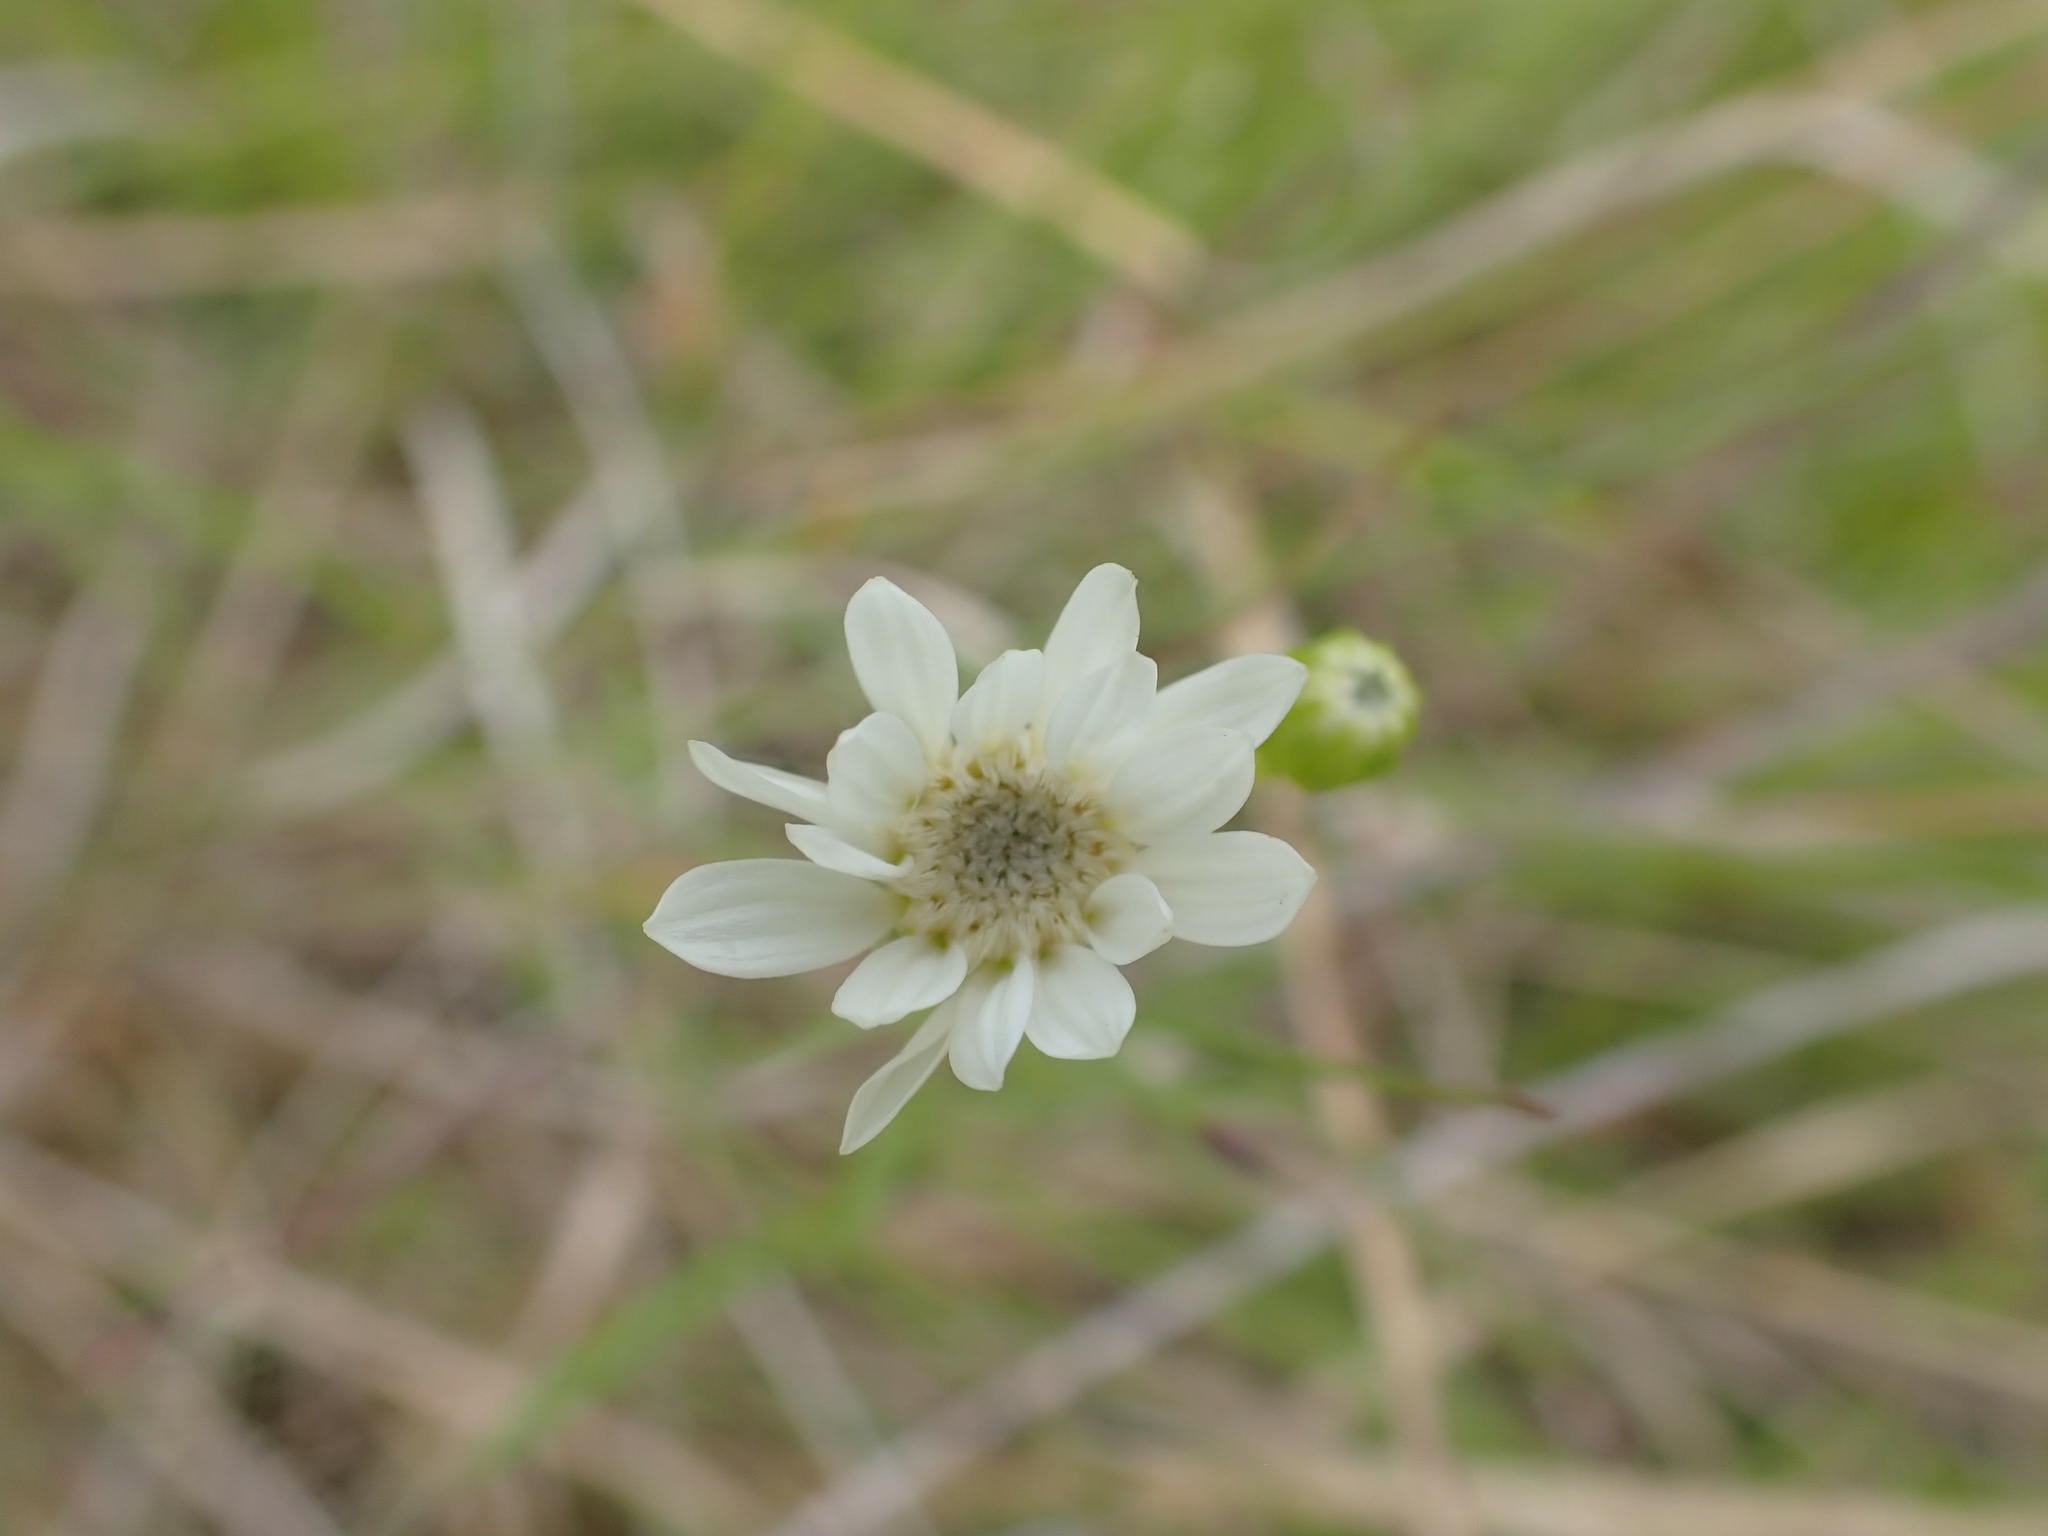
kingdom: Plantae
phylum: Tracheophyta
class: Magnoliopsida
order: Asterales
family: Asteraceae
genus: Solidago
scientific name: Solidago ptarmicoides
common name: White flat-top goldenrod
